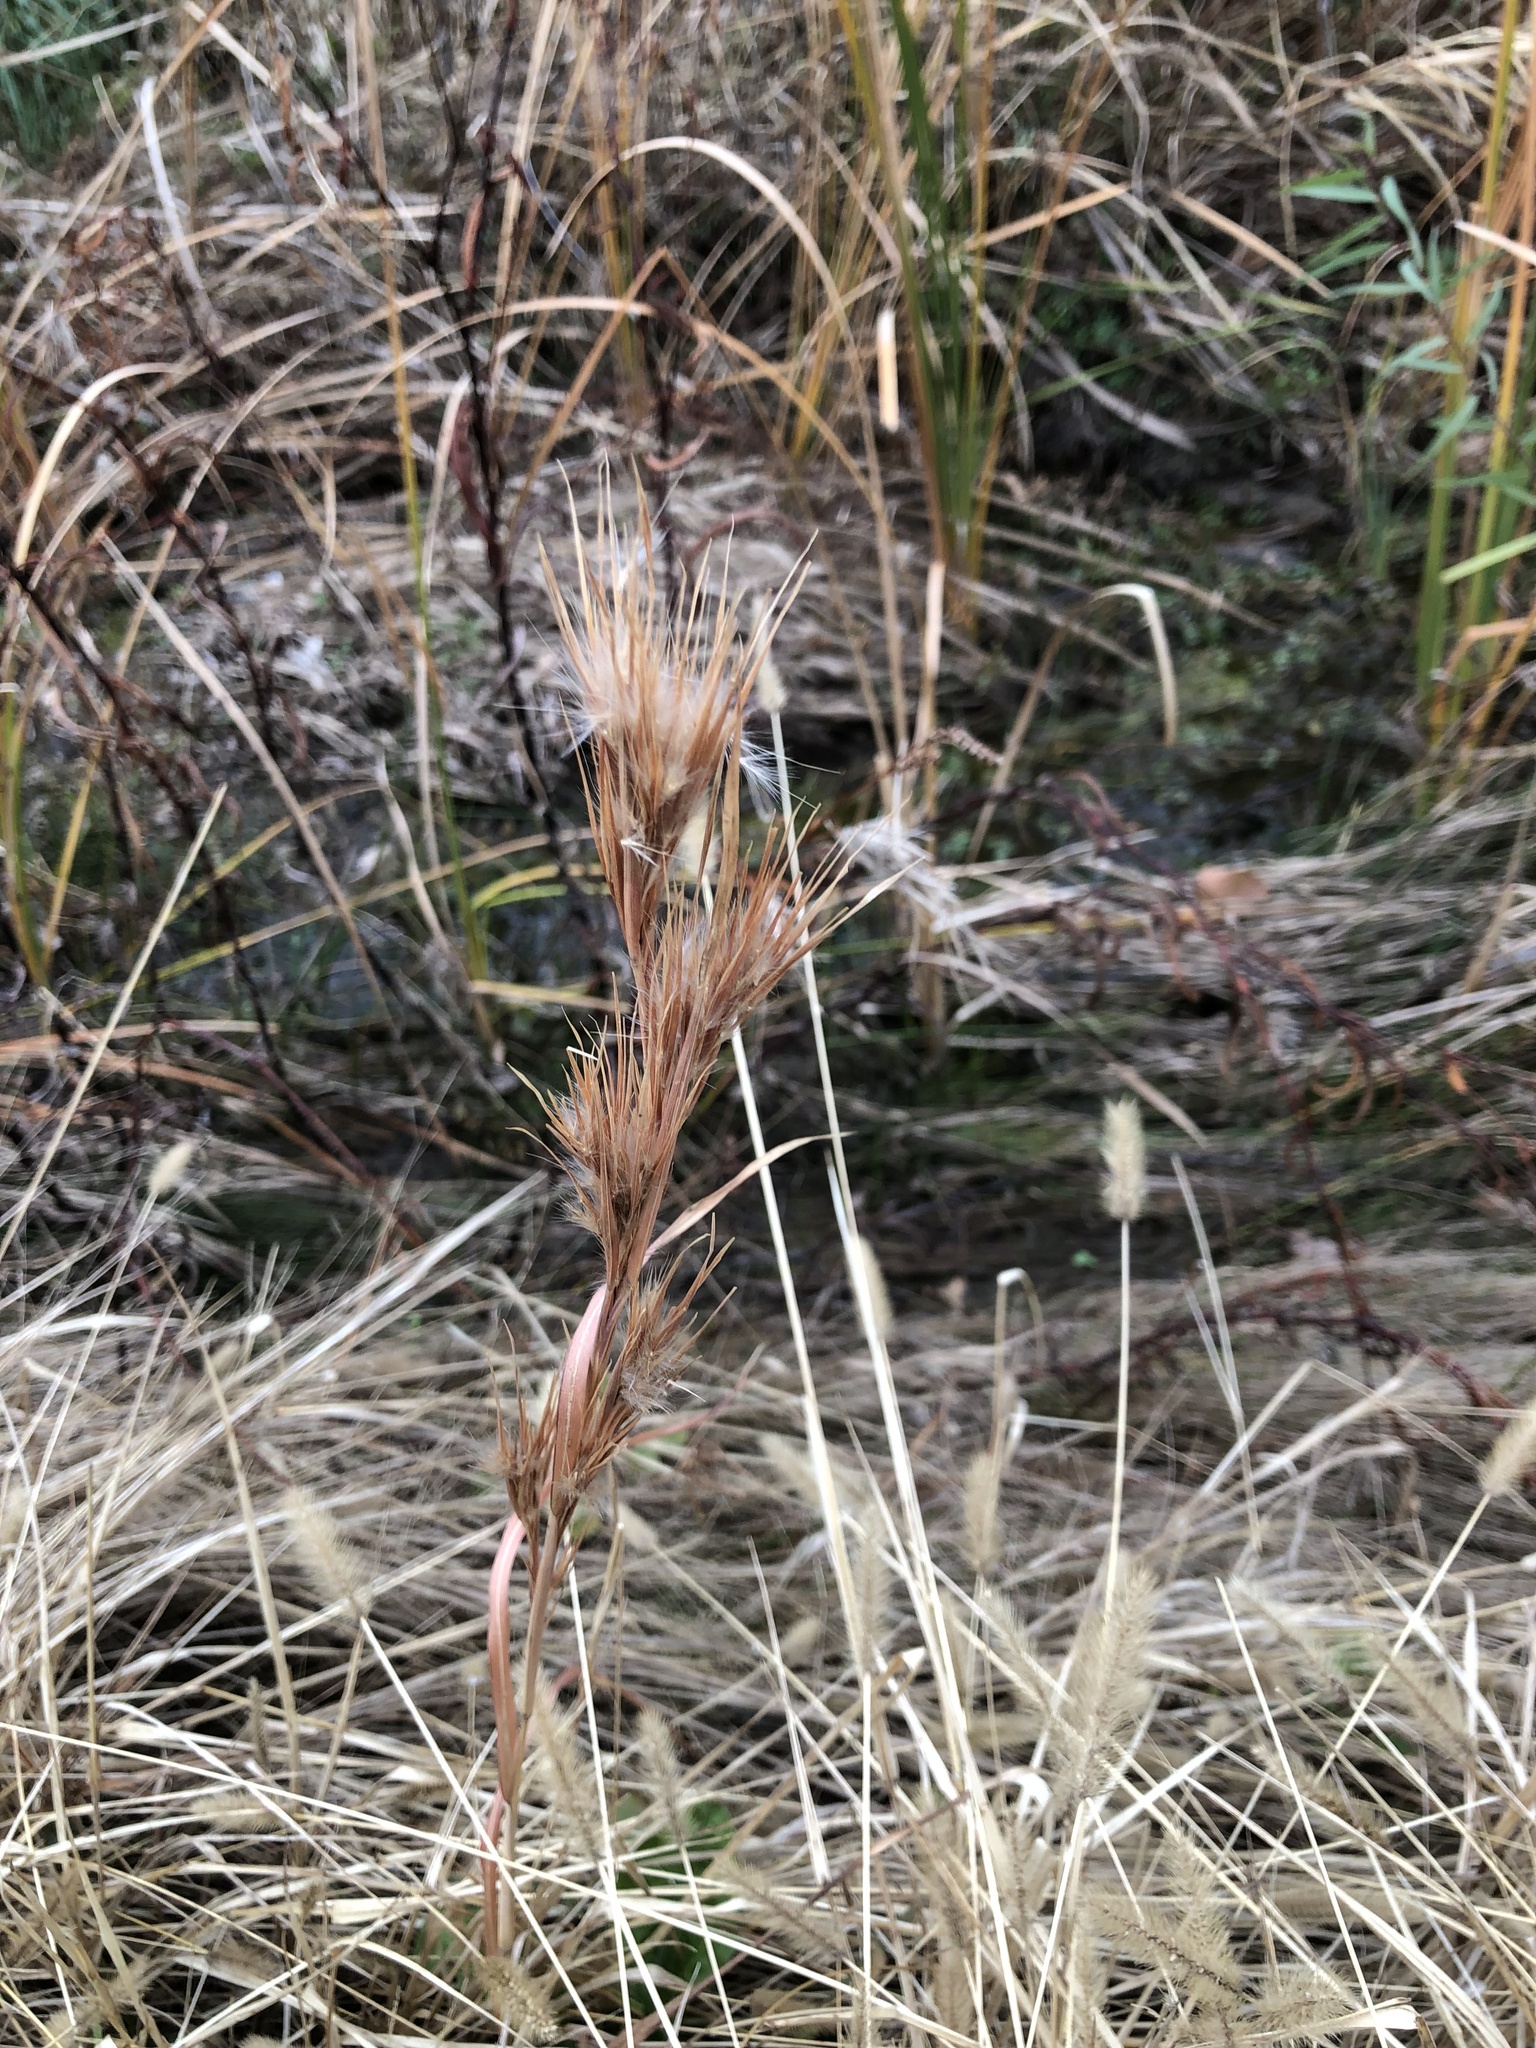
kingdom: Plantae
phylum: Tracheophyta
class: Liliopsida
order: Poales
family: Poaceae
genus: Andropogon
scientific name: Andropogon tenuispatheus
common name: Bushy bluestem
